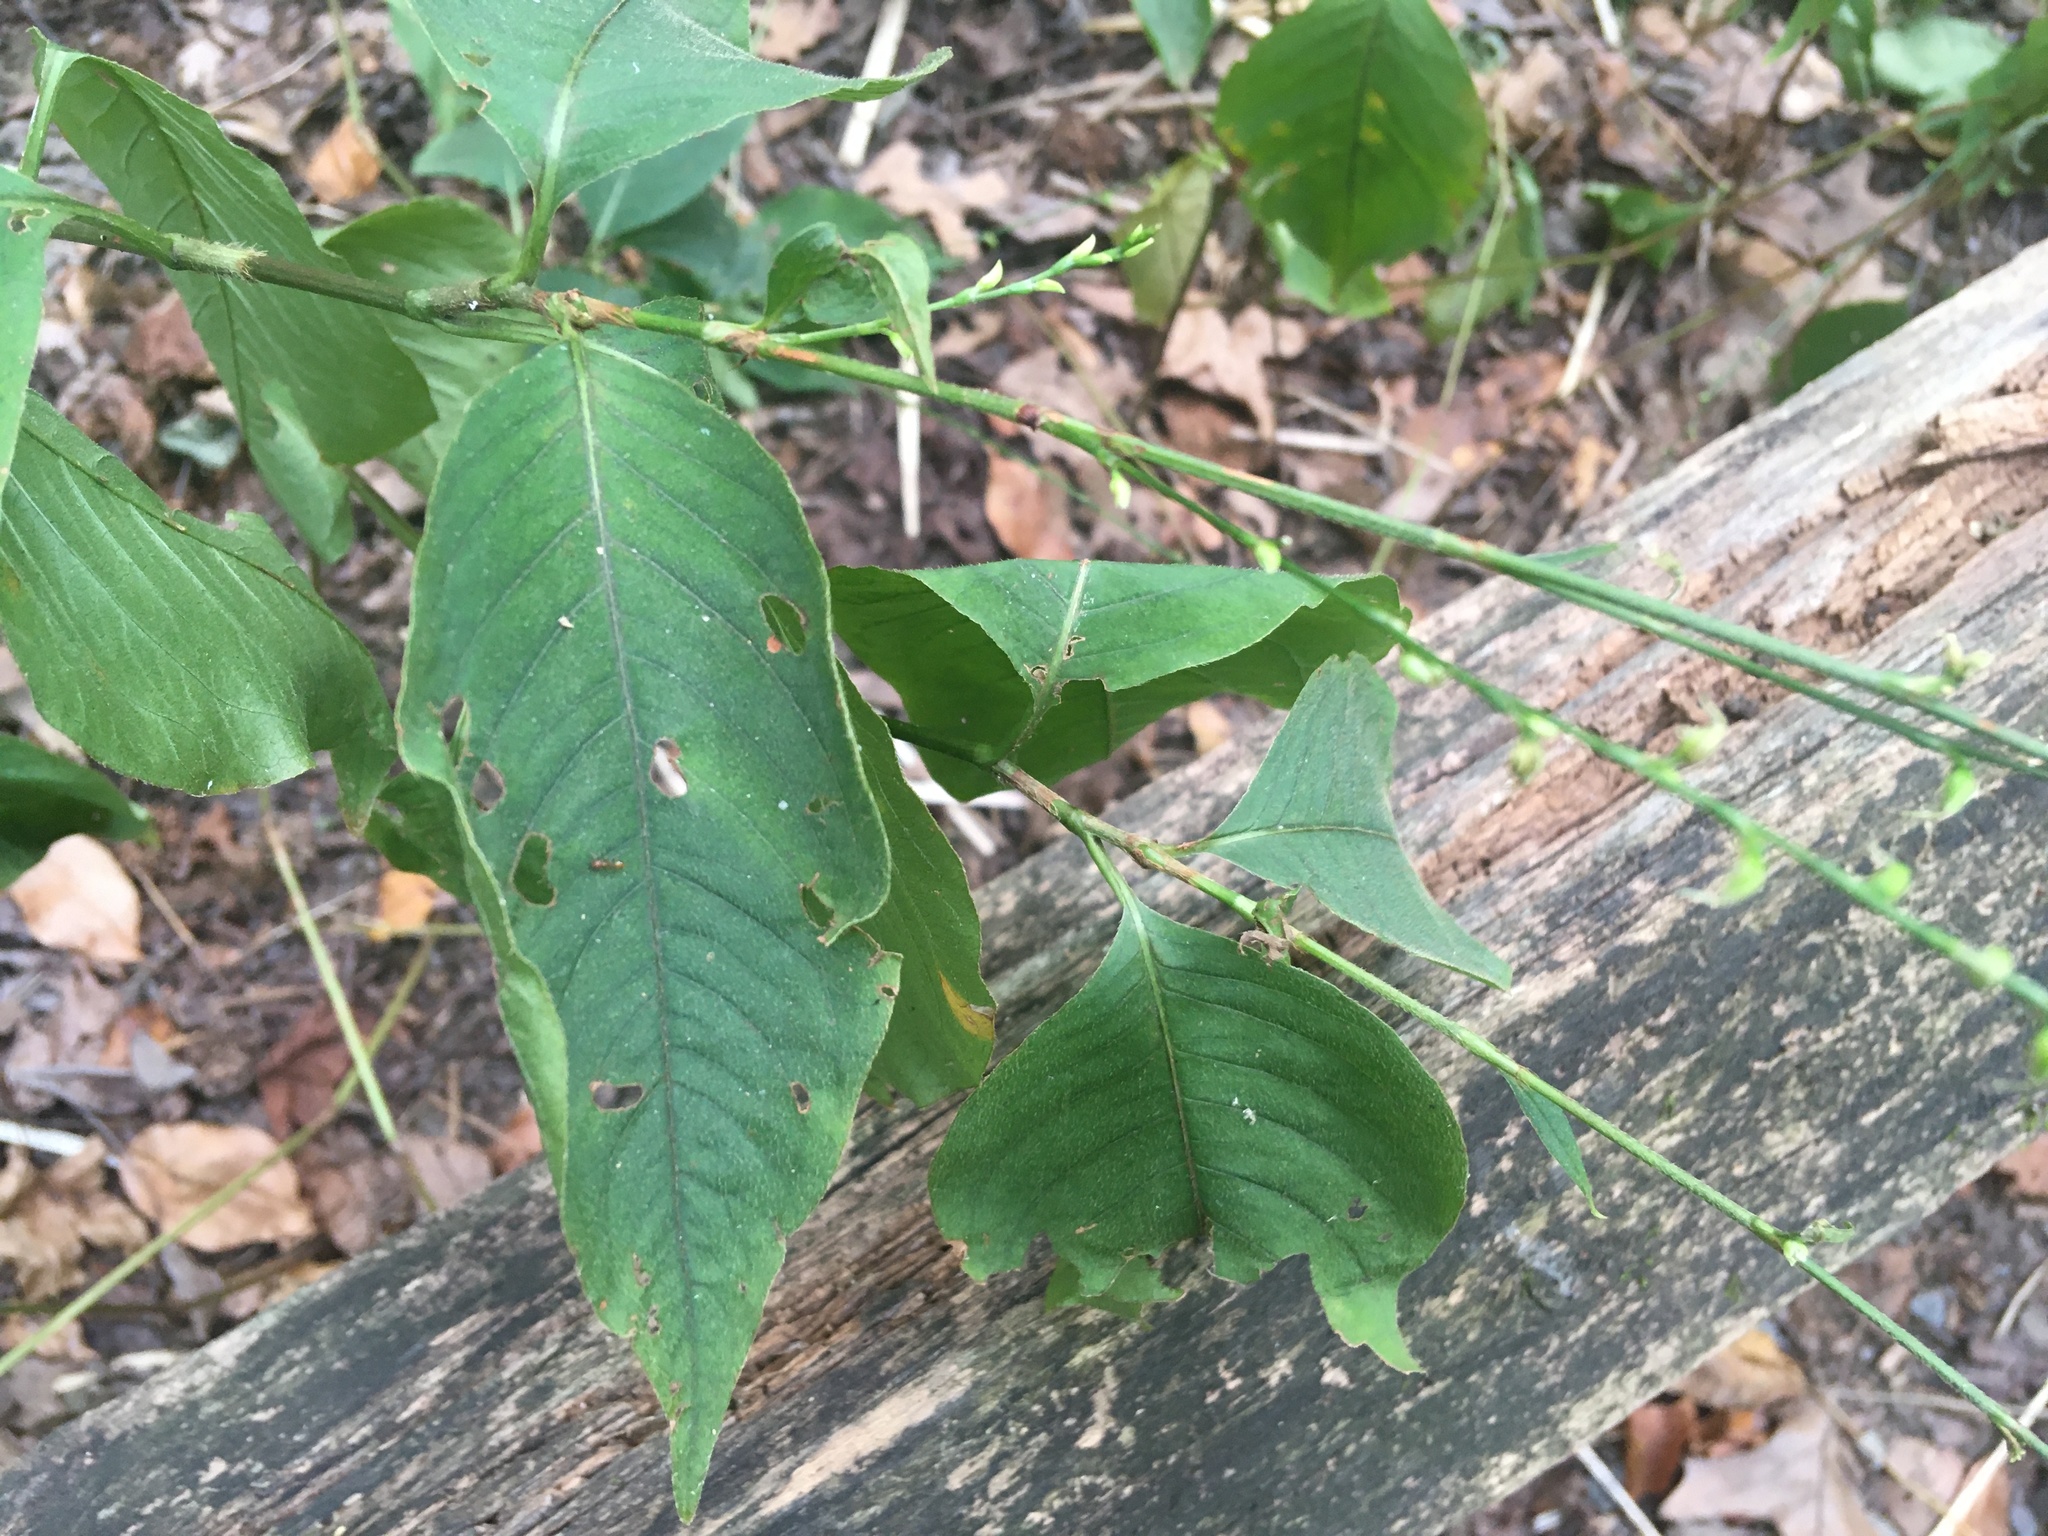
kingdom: Plantae
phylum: Tracheophyta
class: Magnoliopsida
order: Caryophyllales
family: Polygonaceae
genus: Persicaria
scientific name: Persicaria virginiana
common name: Jumpseed
